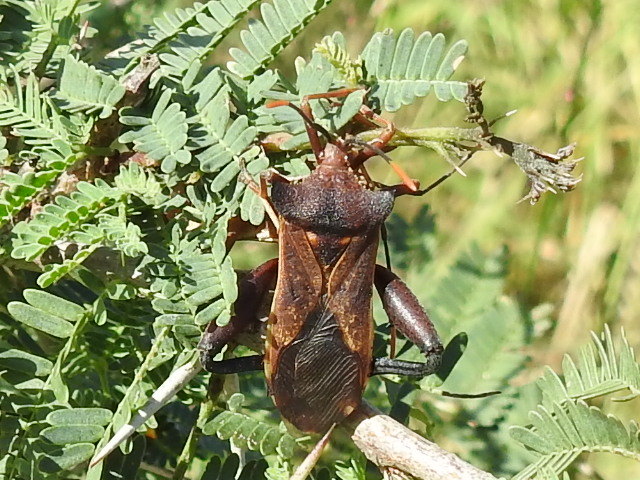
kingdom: Animalia
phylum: Arthropoda
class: Insecta
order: Hemiptera
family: Coreidae
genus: Mozena
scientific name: Mozena lunata
